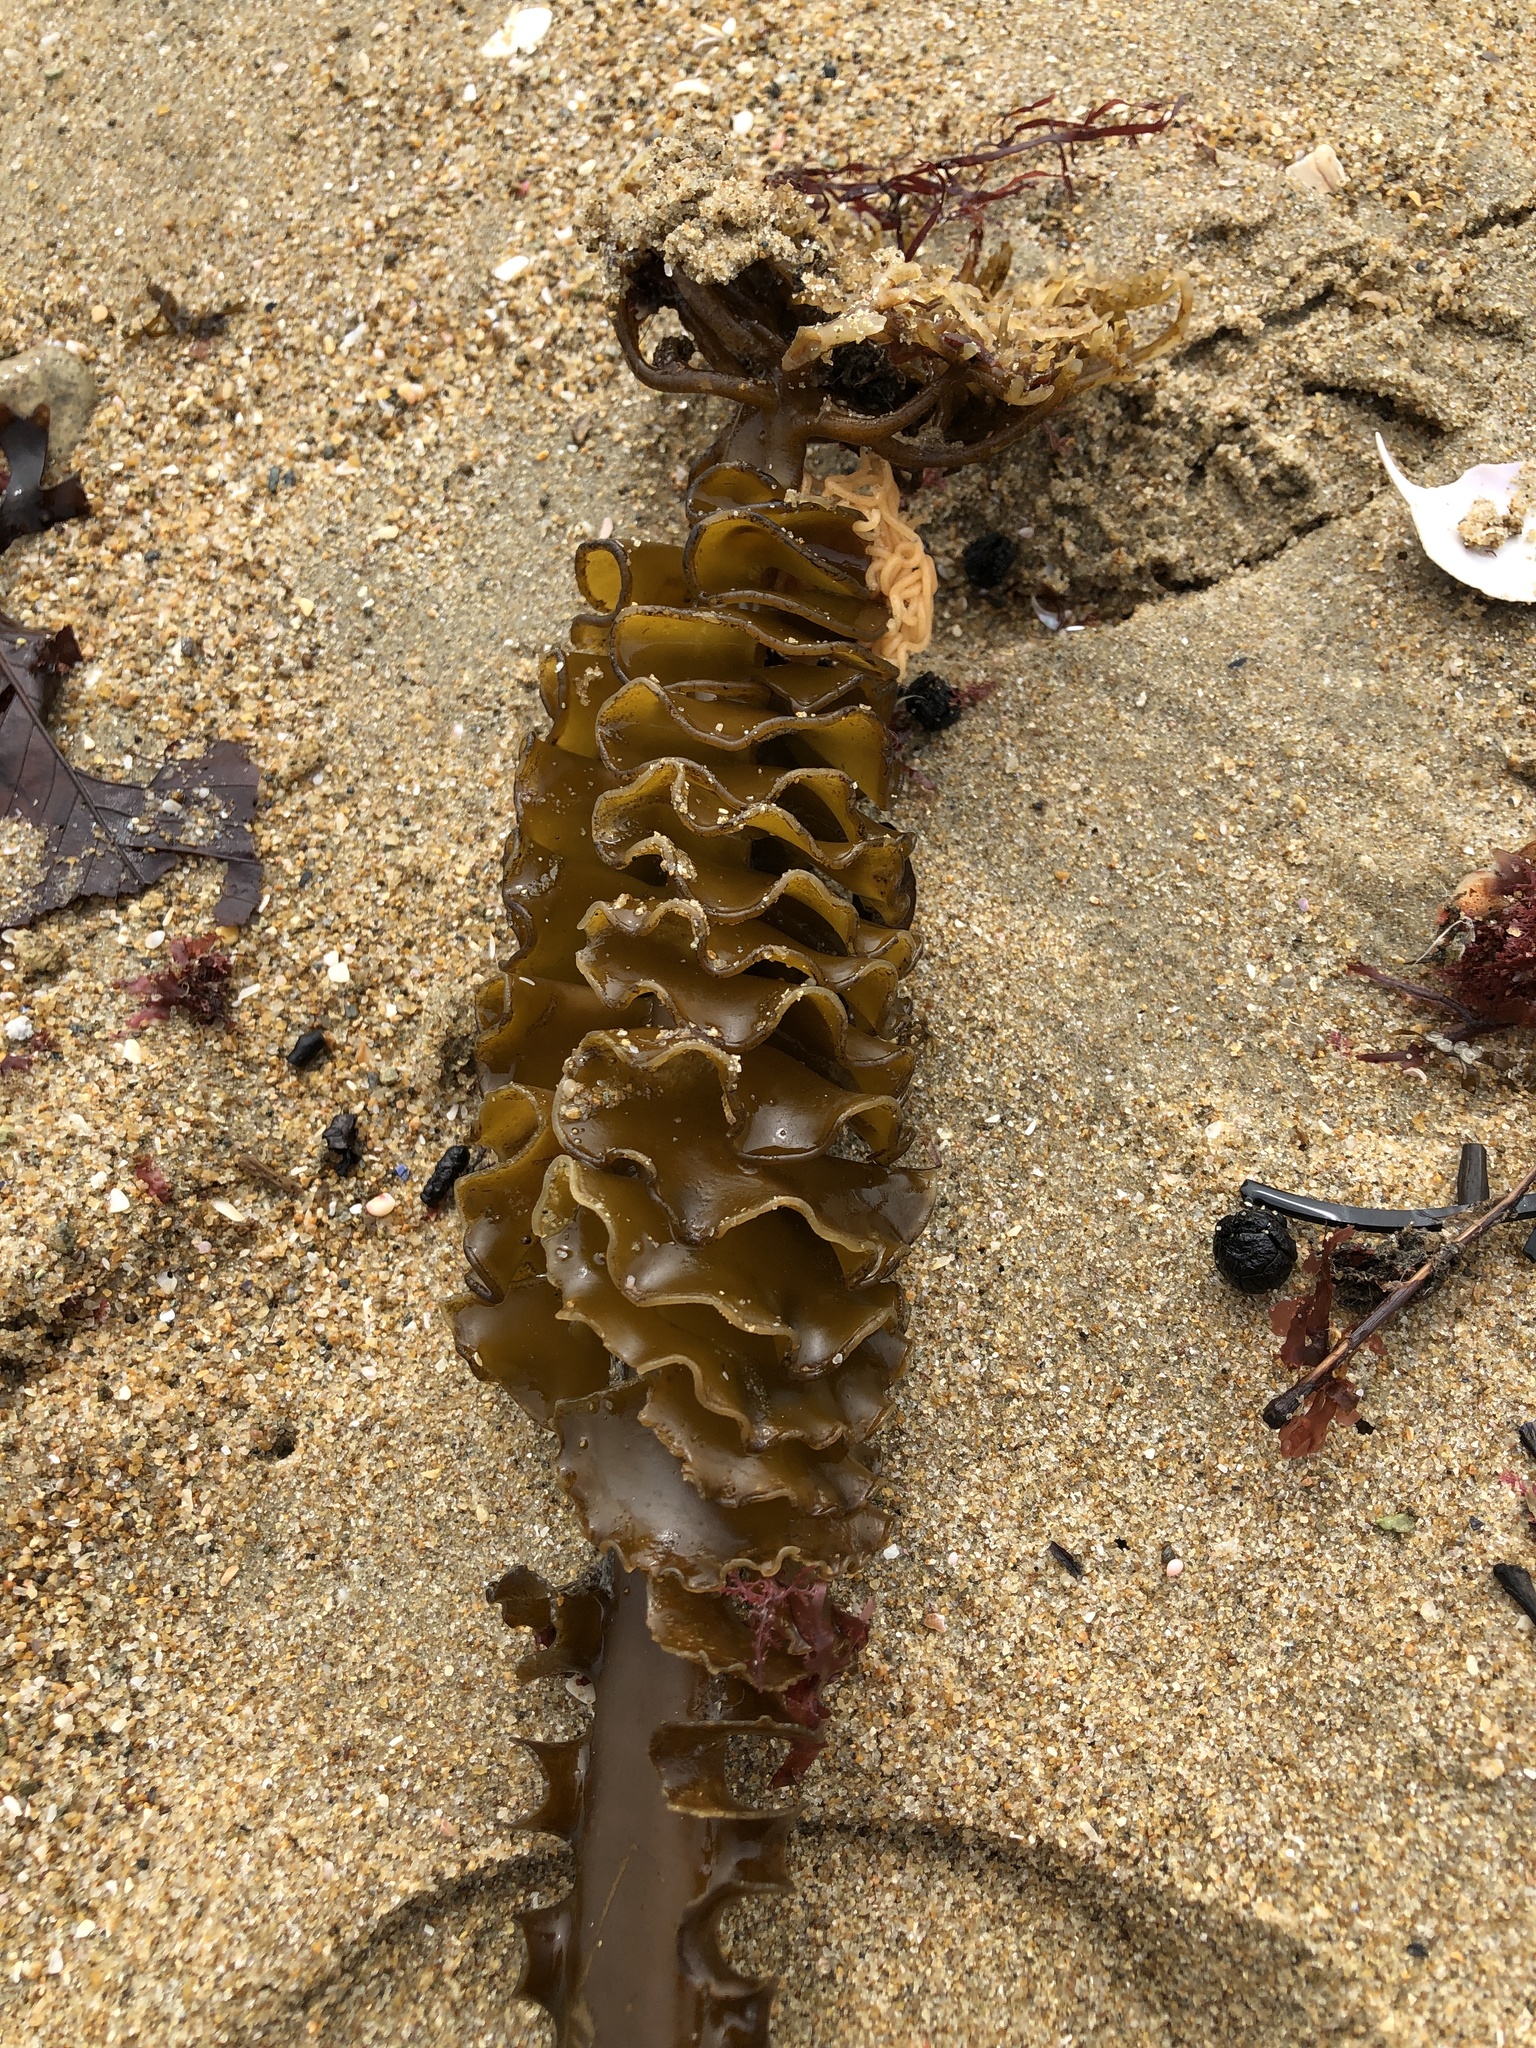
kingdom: Chromista
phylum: Ochrophyta
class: Phaeophyceae
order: Laminariales
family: Alariaceae
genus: Undaria
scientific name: Undaria pinnatifida
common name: Asian kelp
